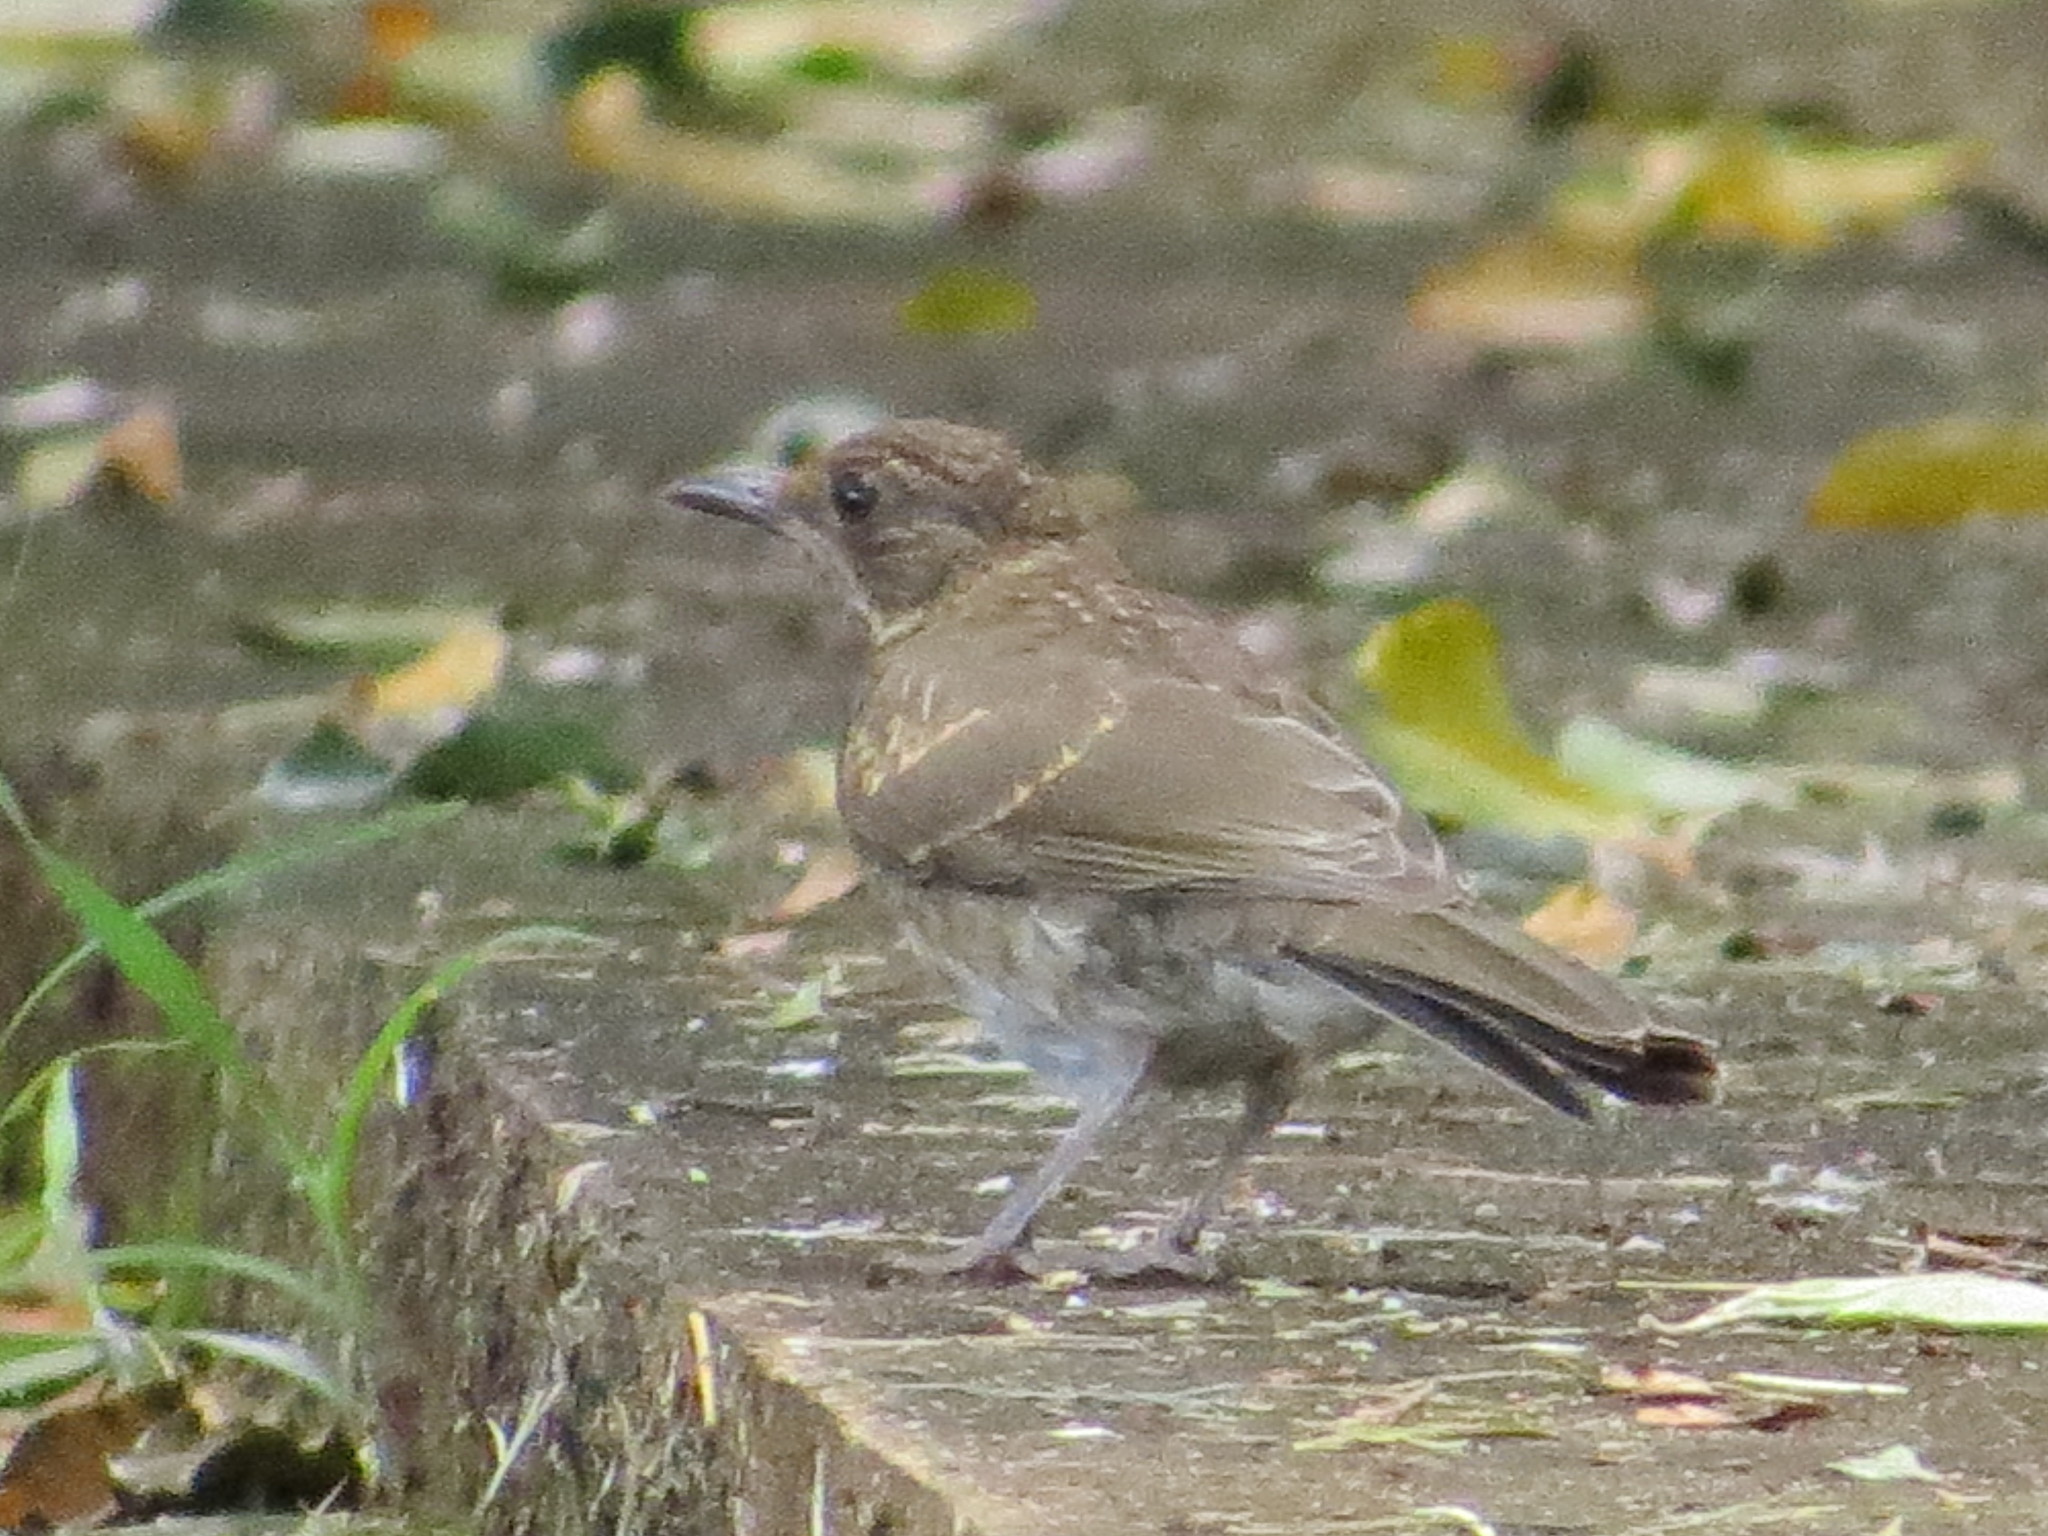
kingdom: Animalia
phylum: Chordata
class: Aves
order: Passeriformes
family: Turdidae
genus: Turdus
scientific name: Turdus leucomelas
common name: Pale-breasted thrush
